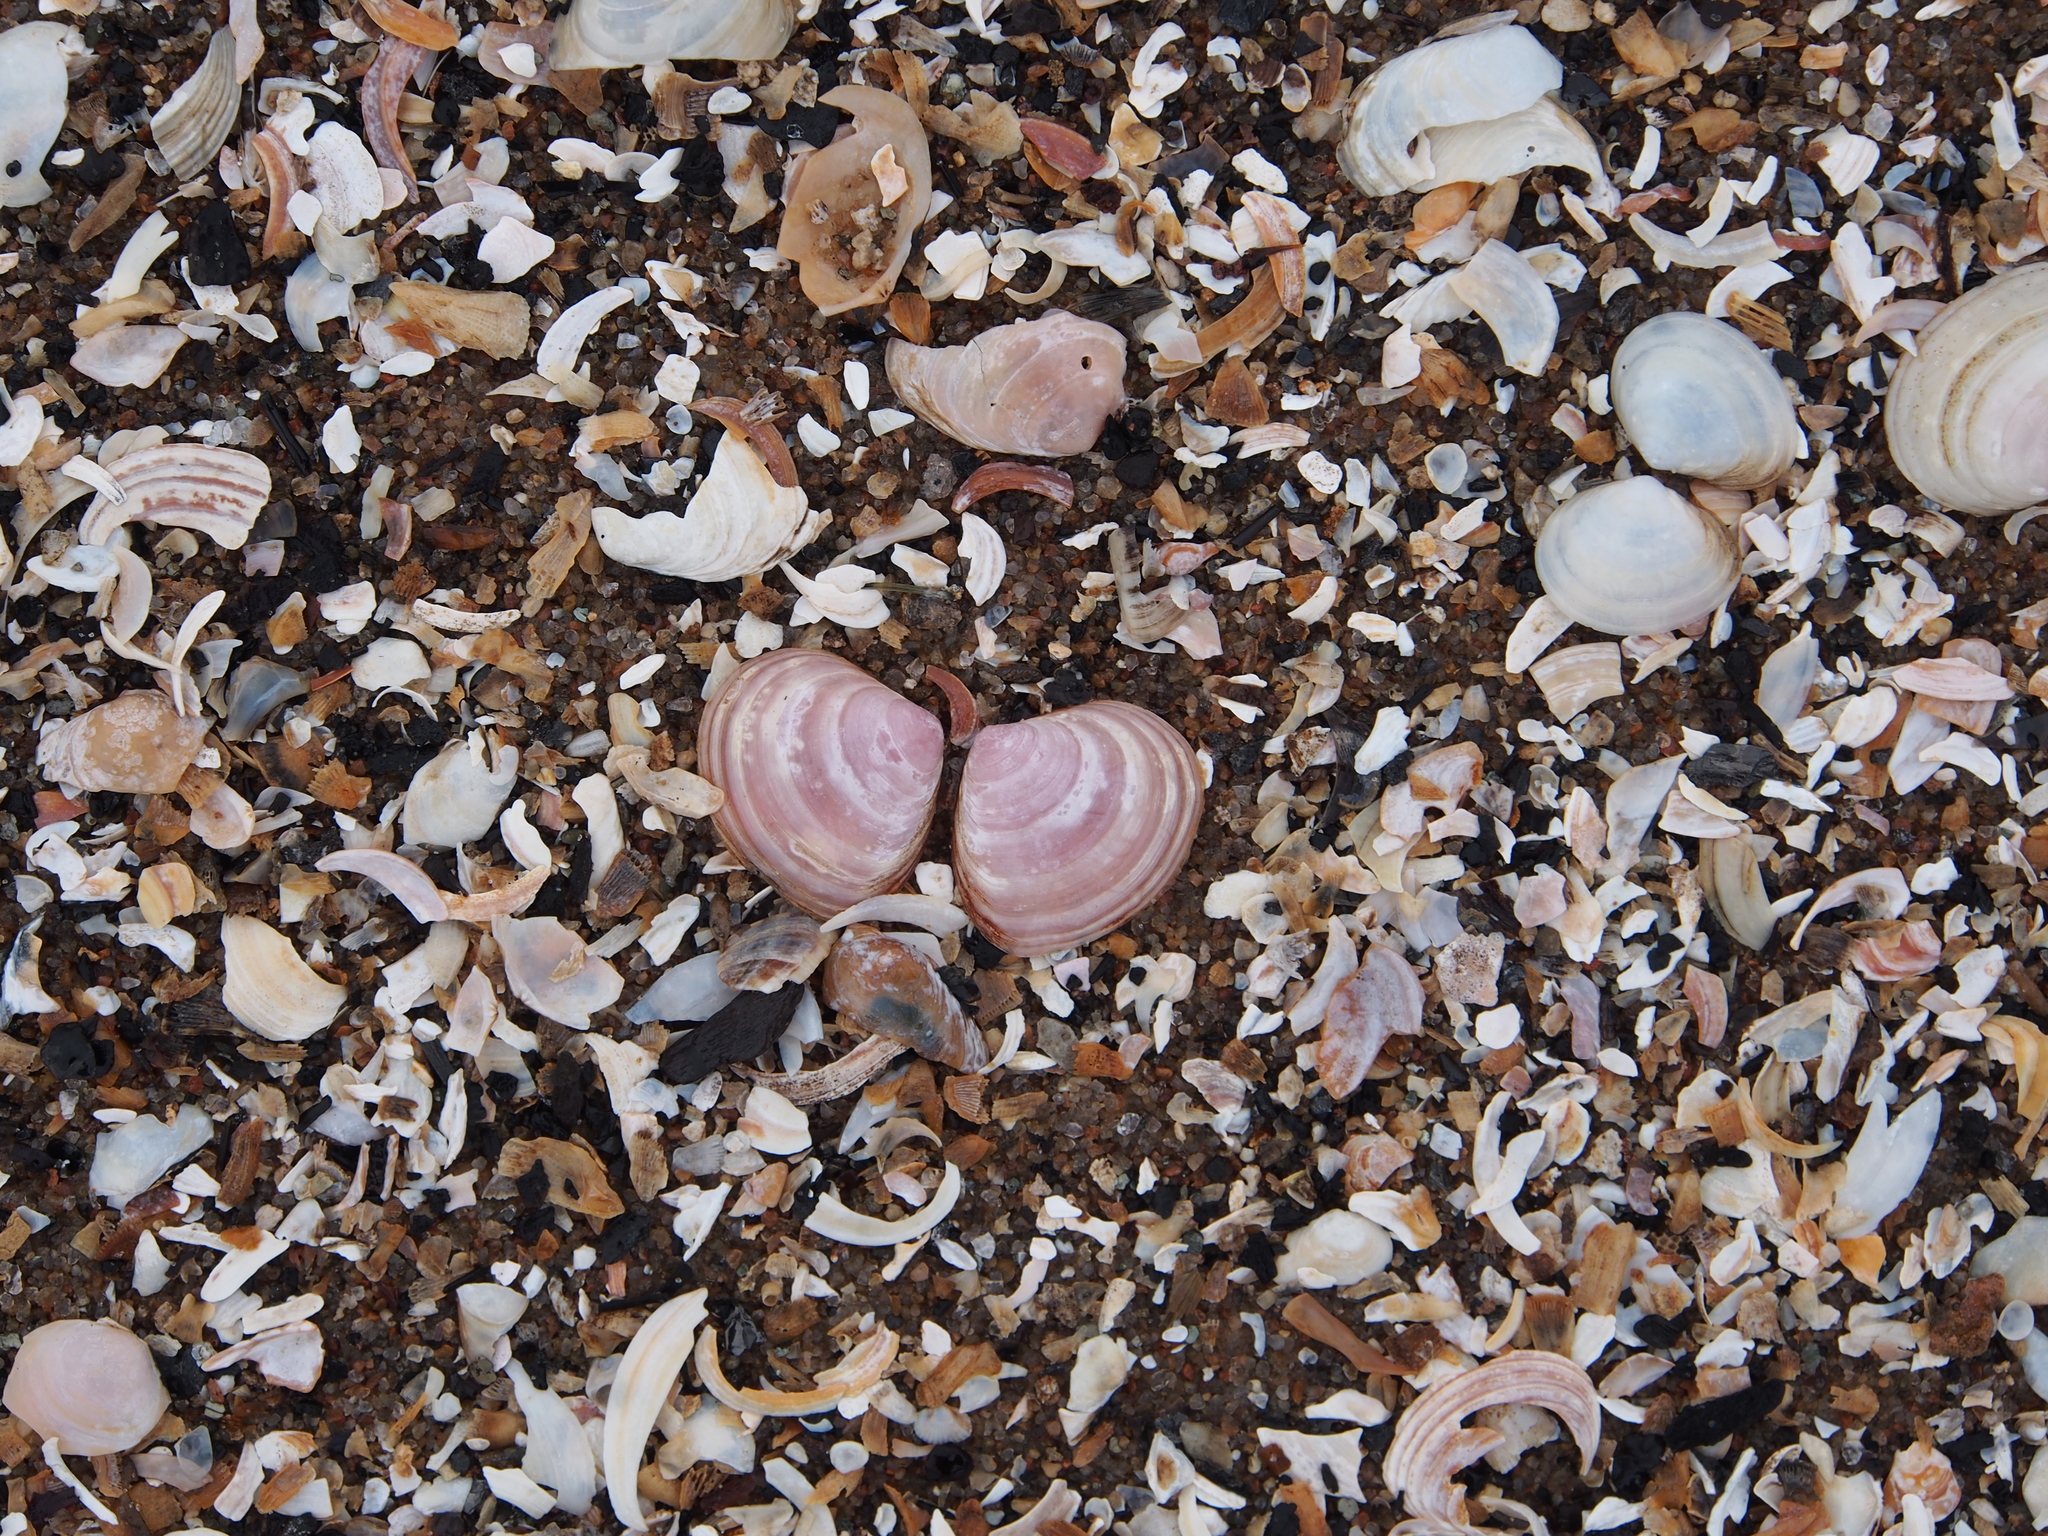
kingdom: Animalia
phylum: Mollusca
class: Bivalvia
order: Cardiida
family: Tellinidae
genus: Macoma
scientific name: Macoma balthica
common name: Baltic tellin
